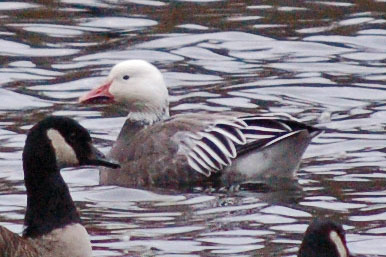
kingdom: Animalia
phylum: Chordata
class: Aves
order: Anseriformes
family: Anatidae
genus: Anser
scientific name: Anser caerulescens
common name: Snow goose
